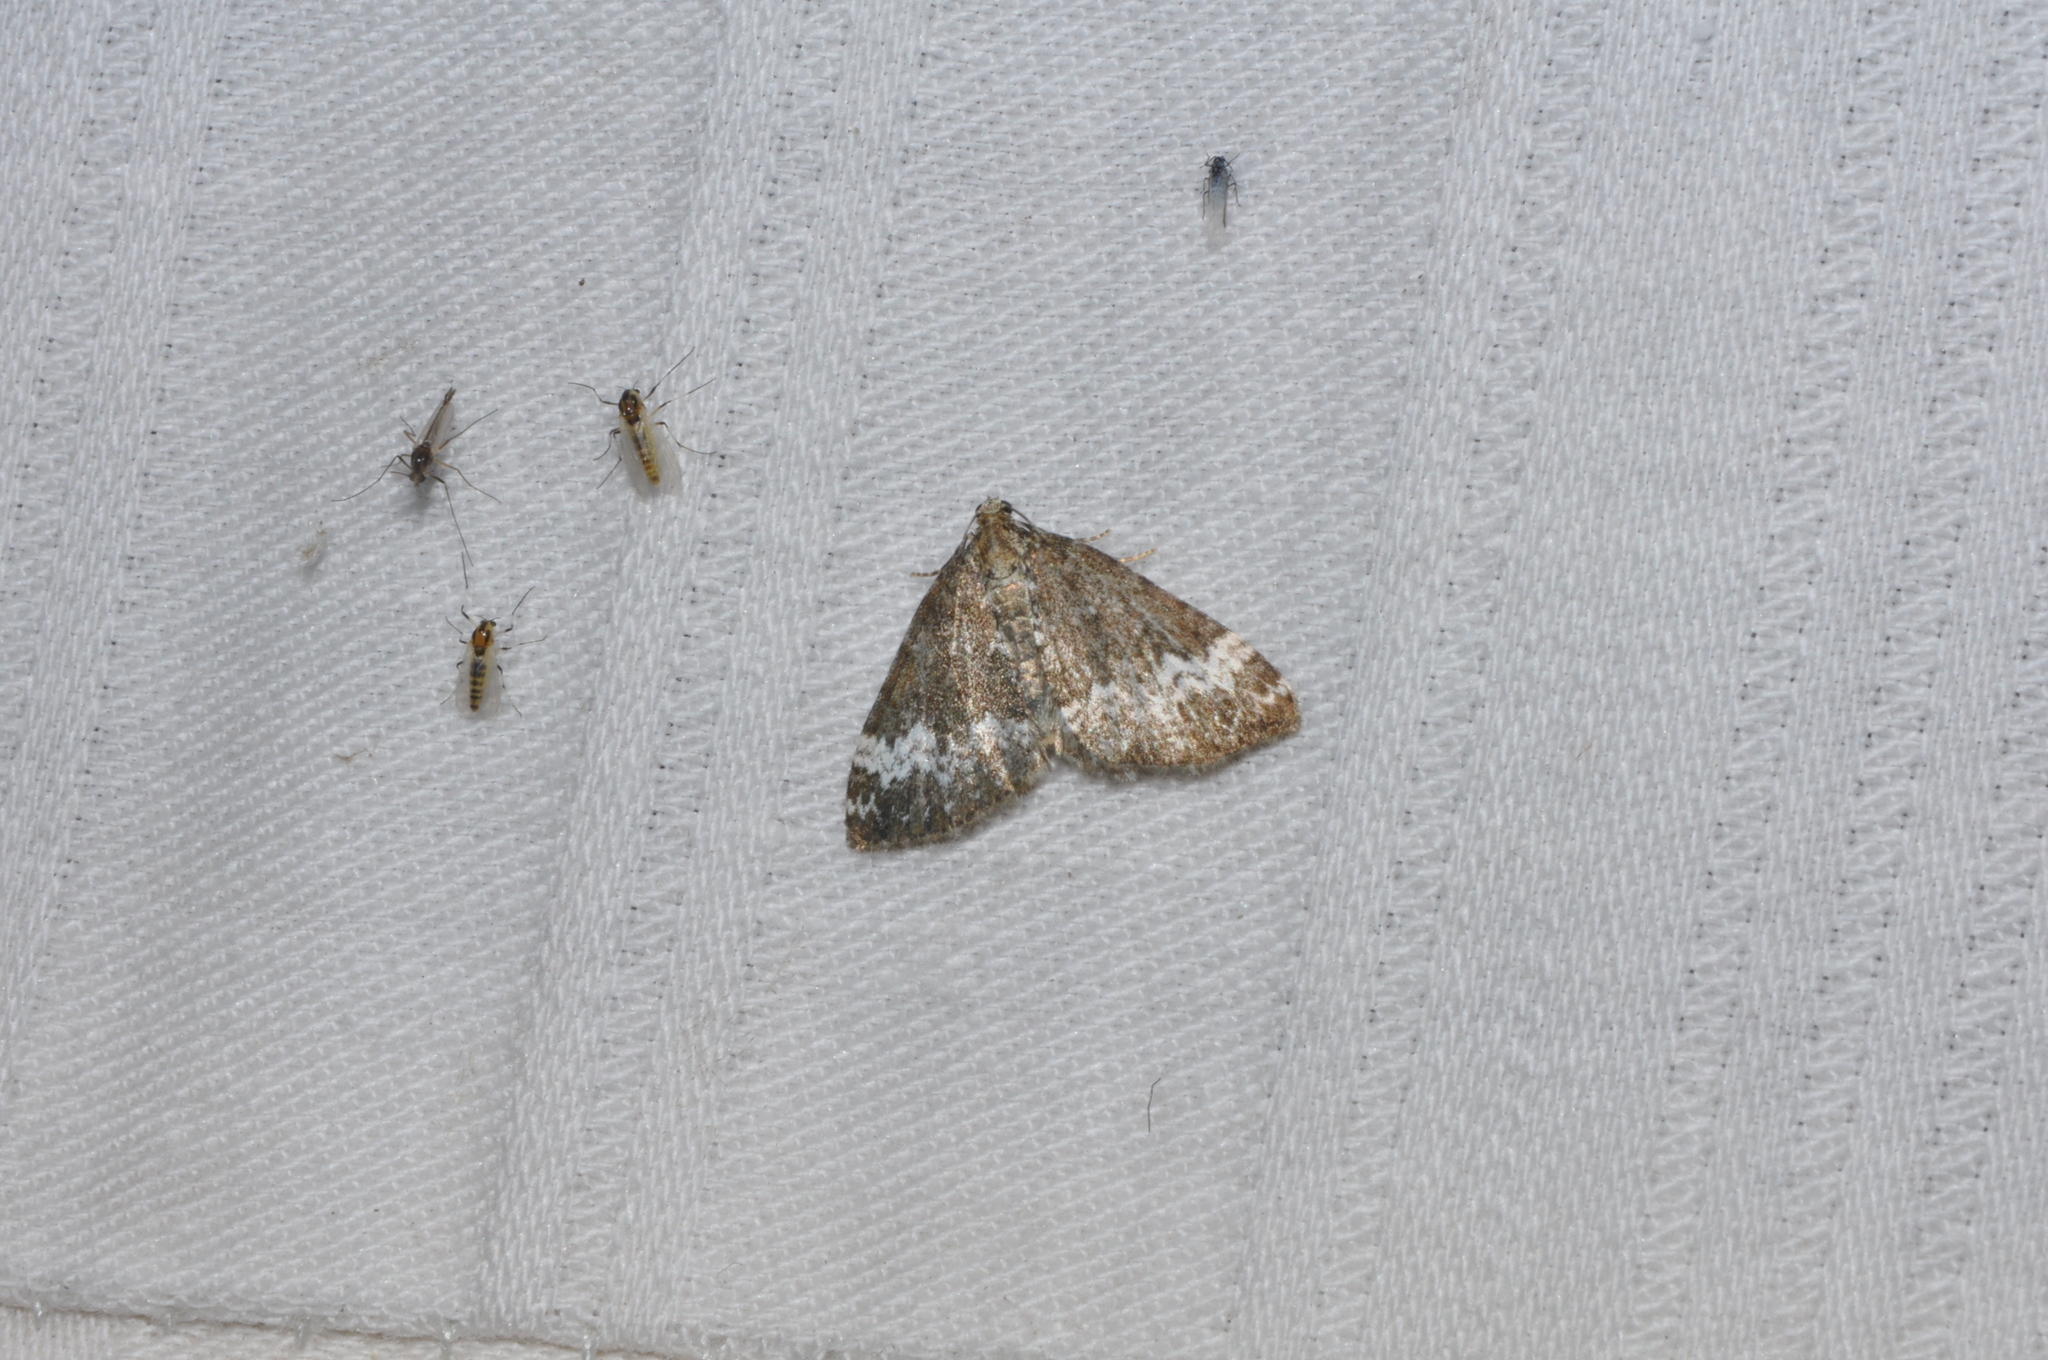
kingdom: Animalia
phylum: Arthropoda
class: Insecta
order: Lepidoptera
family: Geometridae
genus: Perizoma
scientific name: Perizoma alchemillata
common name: Small rivulet
